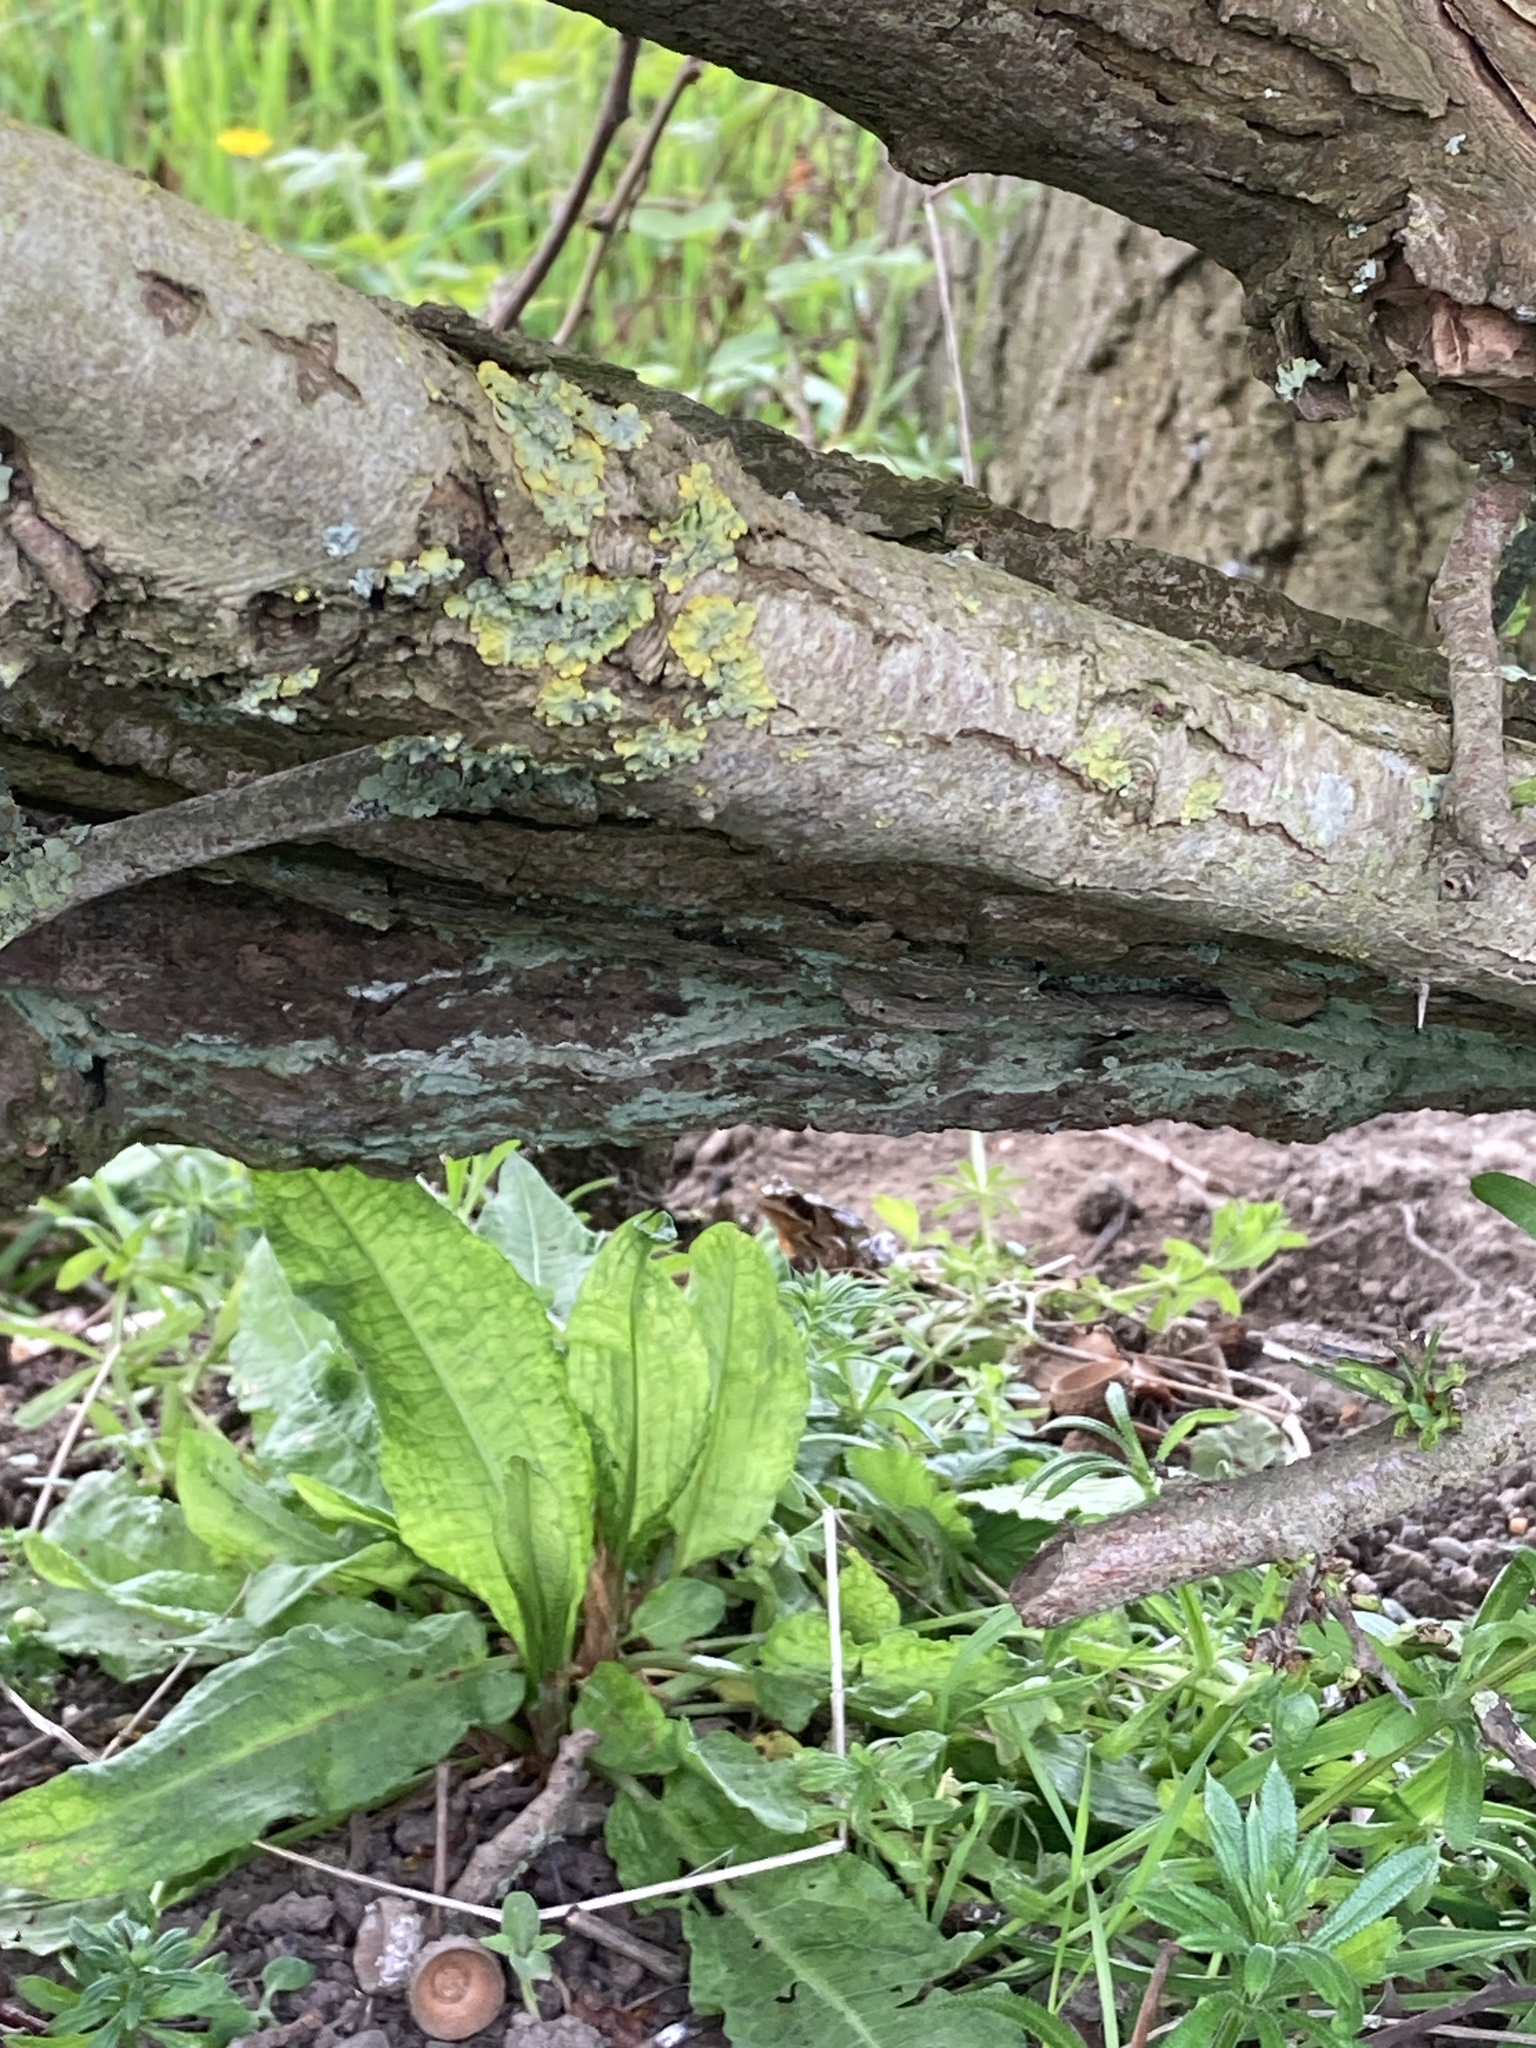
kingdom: Animalia
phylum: Chordata
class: Amphibia
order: Anura
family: Ranidae
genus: Rana
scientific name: Rana temporaria
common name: Common frog
